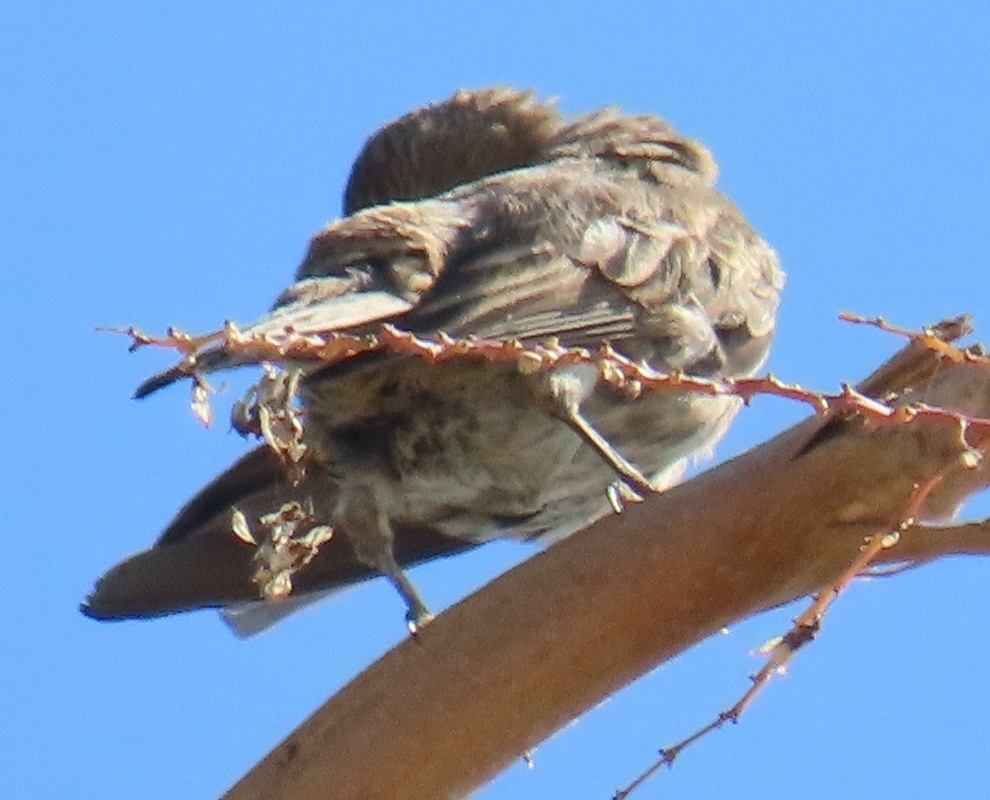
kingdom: Animalia
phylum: Chordata
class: Aves
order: Passeriformes
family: Fringillidae
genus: Haemorhous
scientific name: Haemorhous mexicanus
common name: House finch
